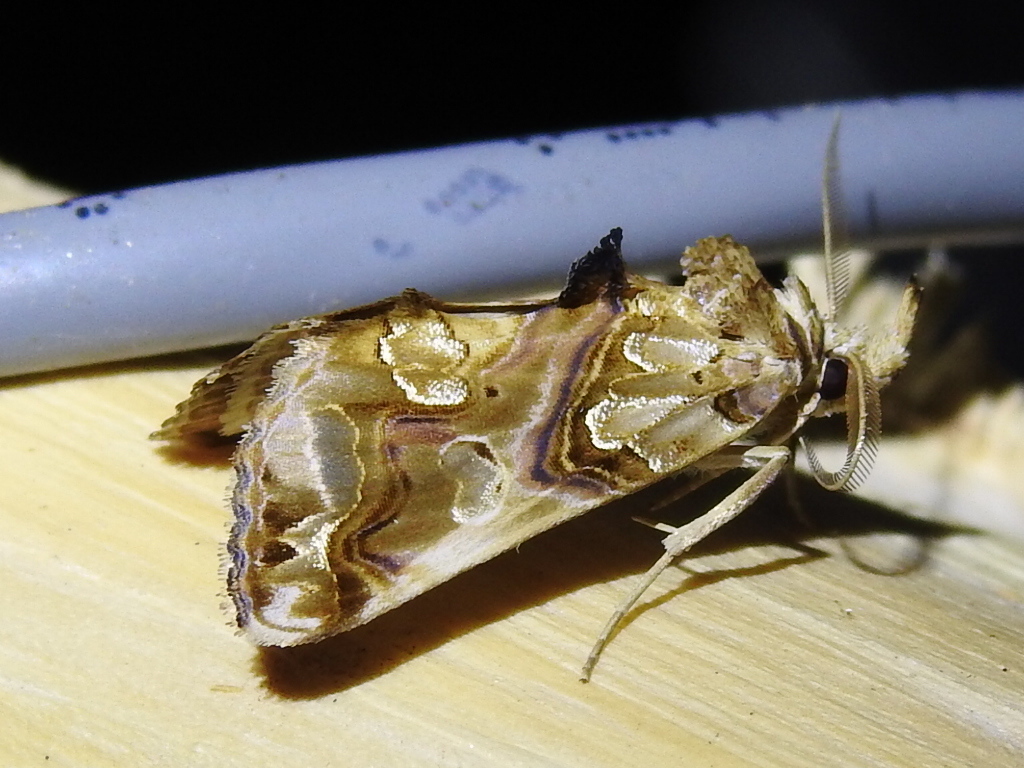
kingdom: Animalia
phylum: Arthropoda
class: Insecta
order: Lepidoptera
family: Erebidae
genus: Plusiodonta
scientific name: Plusiodonta compressipalpis
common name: Moonseed moth
